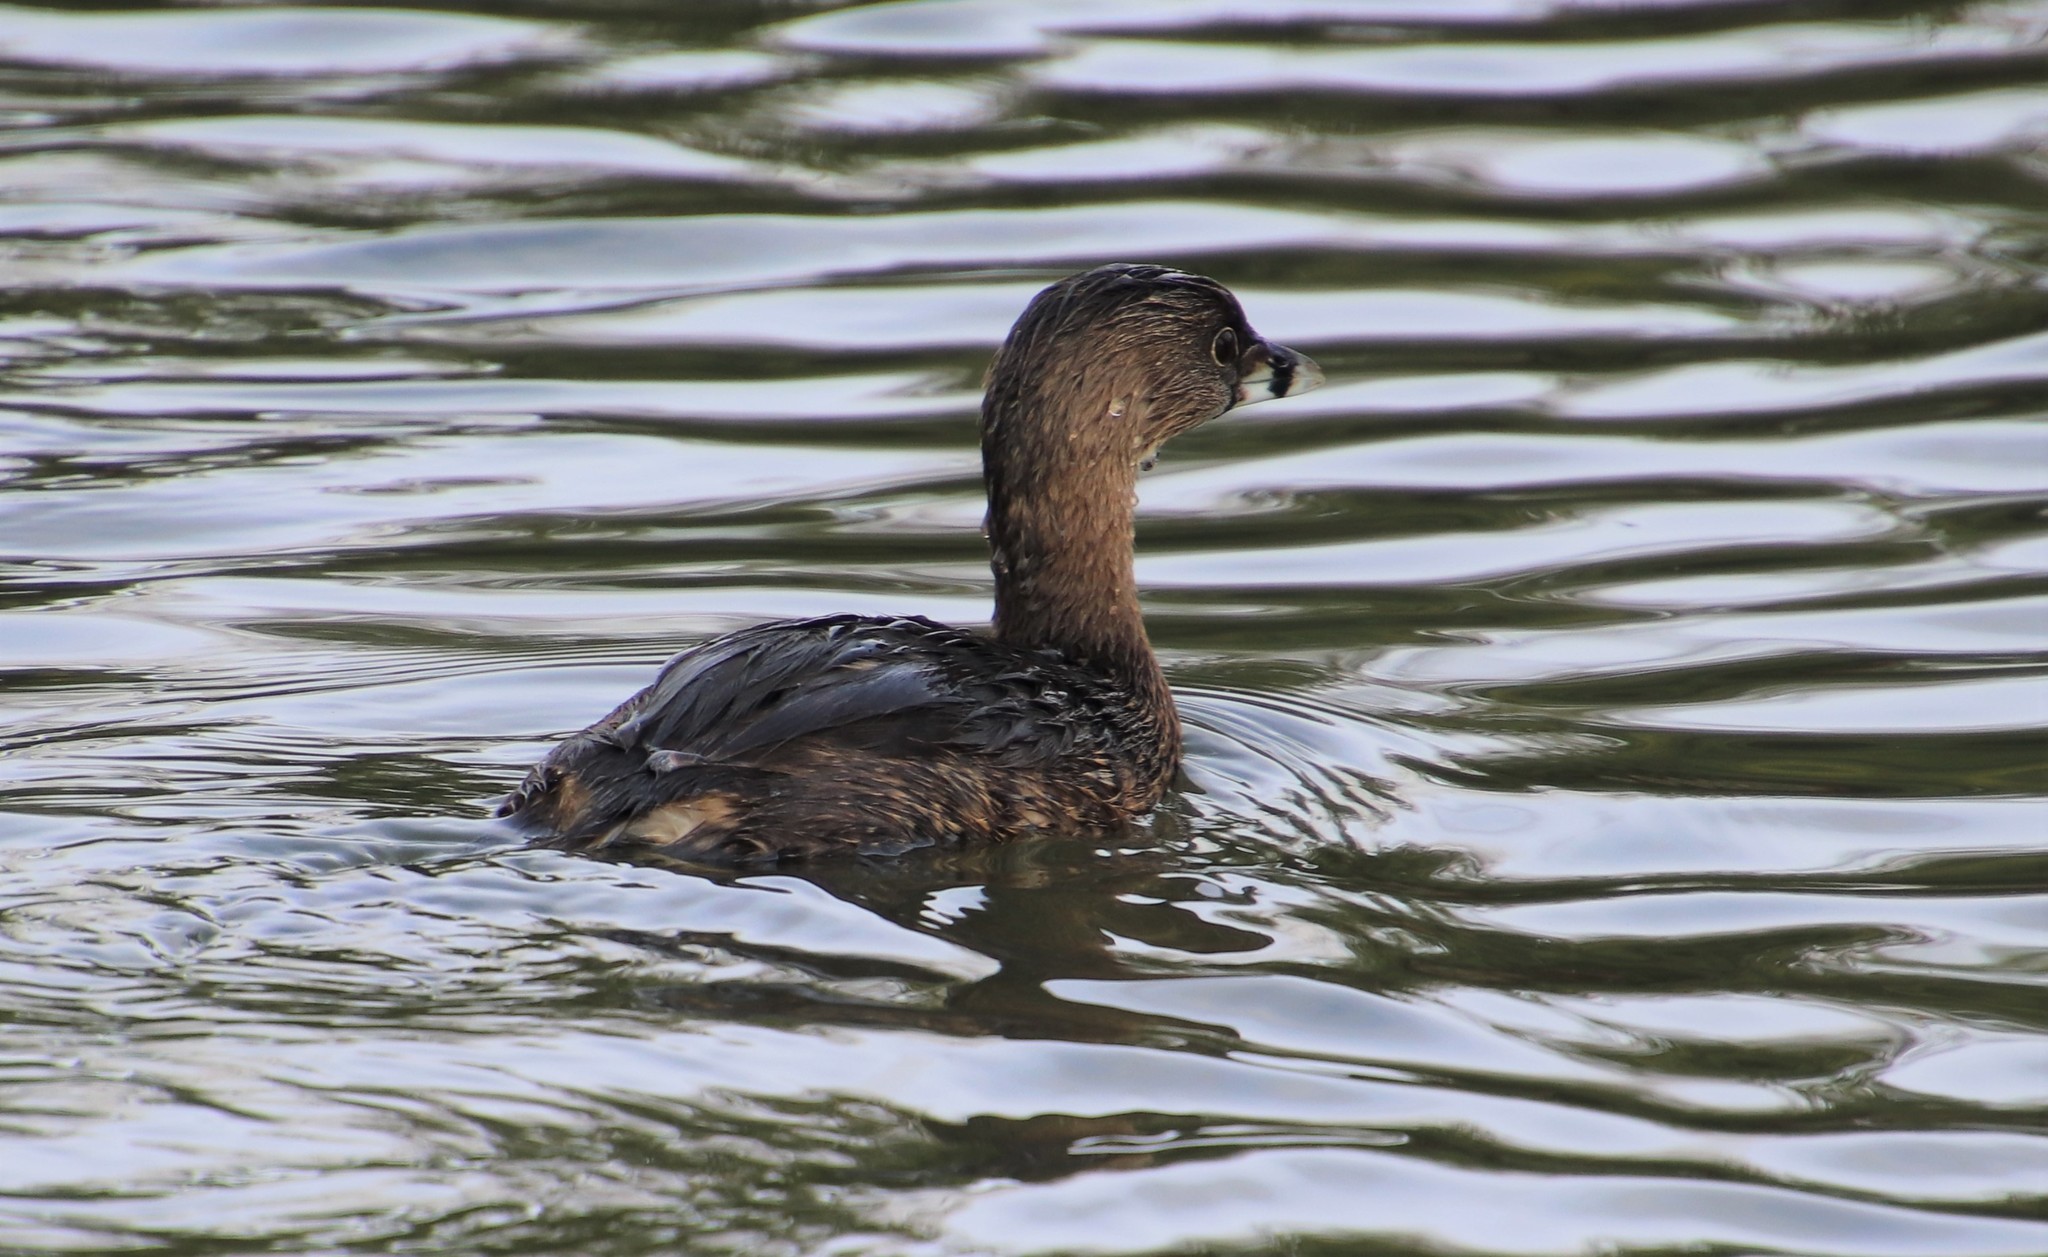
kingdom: Animalia
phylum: Chordata
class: Aves
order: Podicipediformes
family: Podicipedidae
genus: Podilymbus
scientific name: Podilymbus podiceps
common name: Pied-billed grebe
